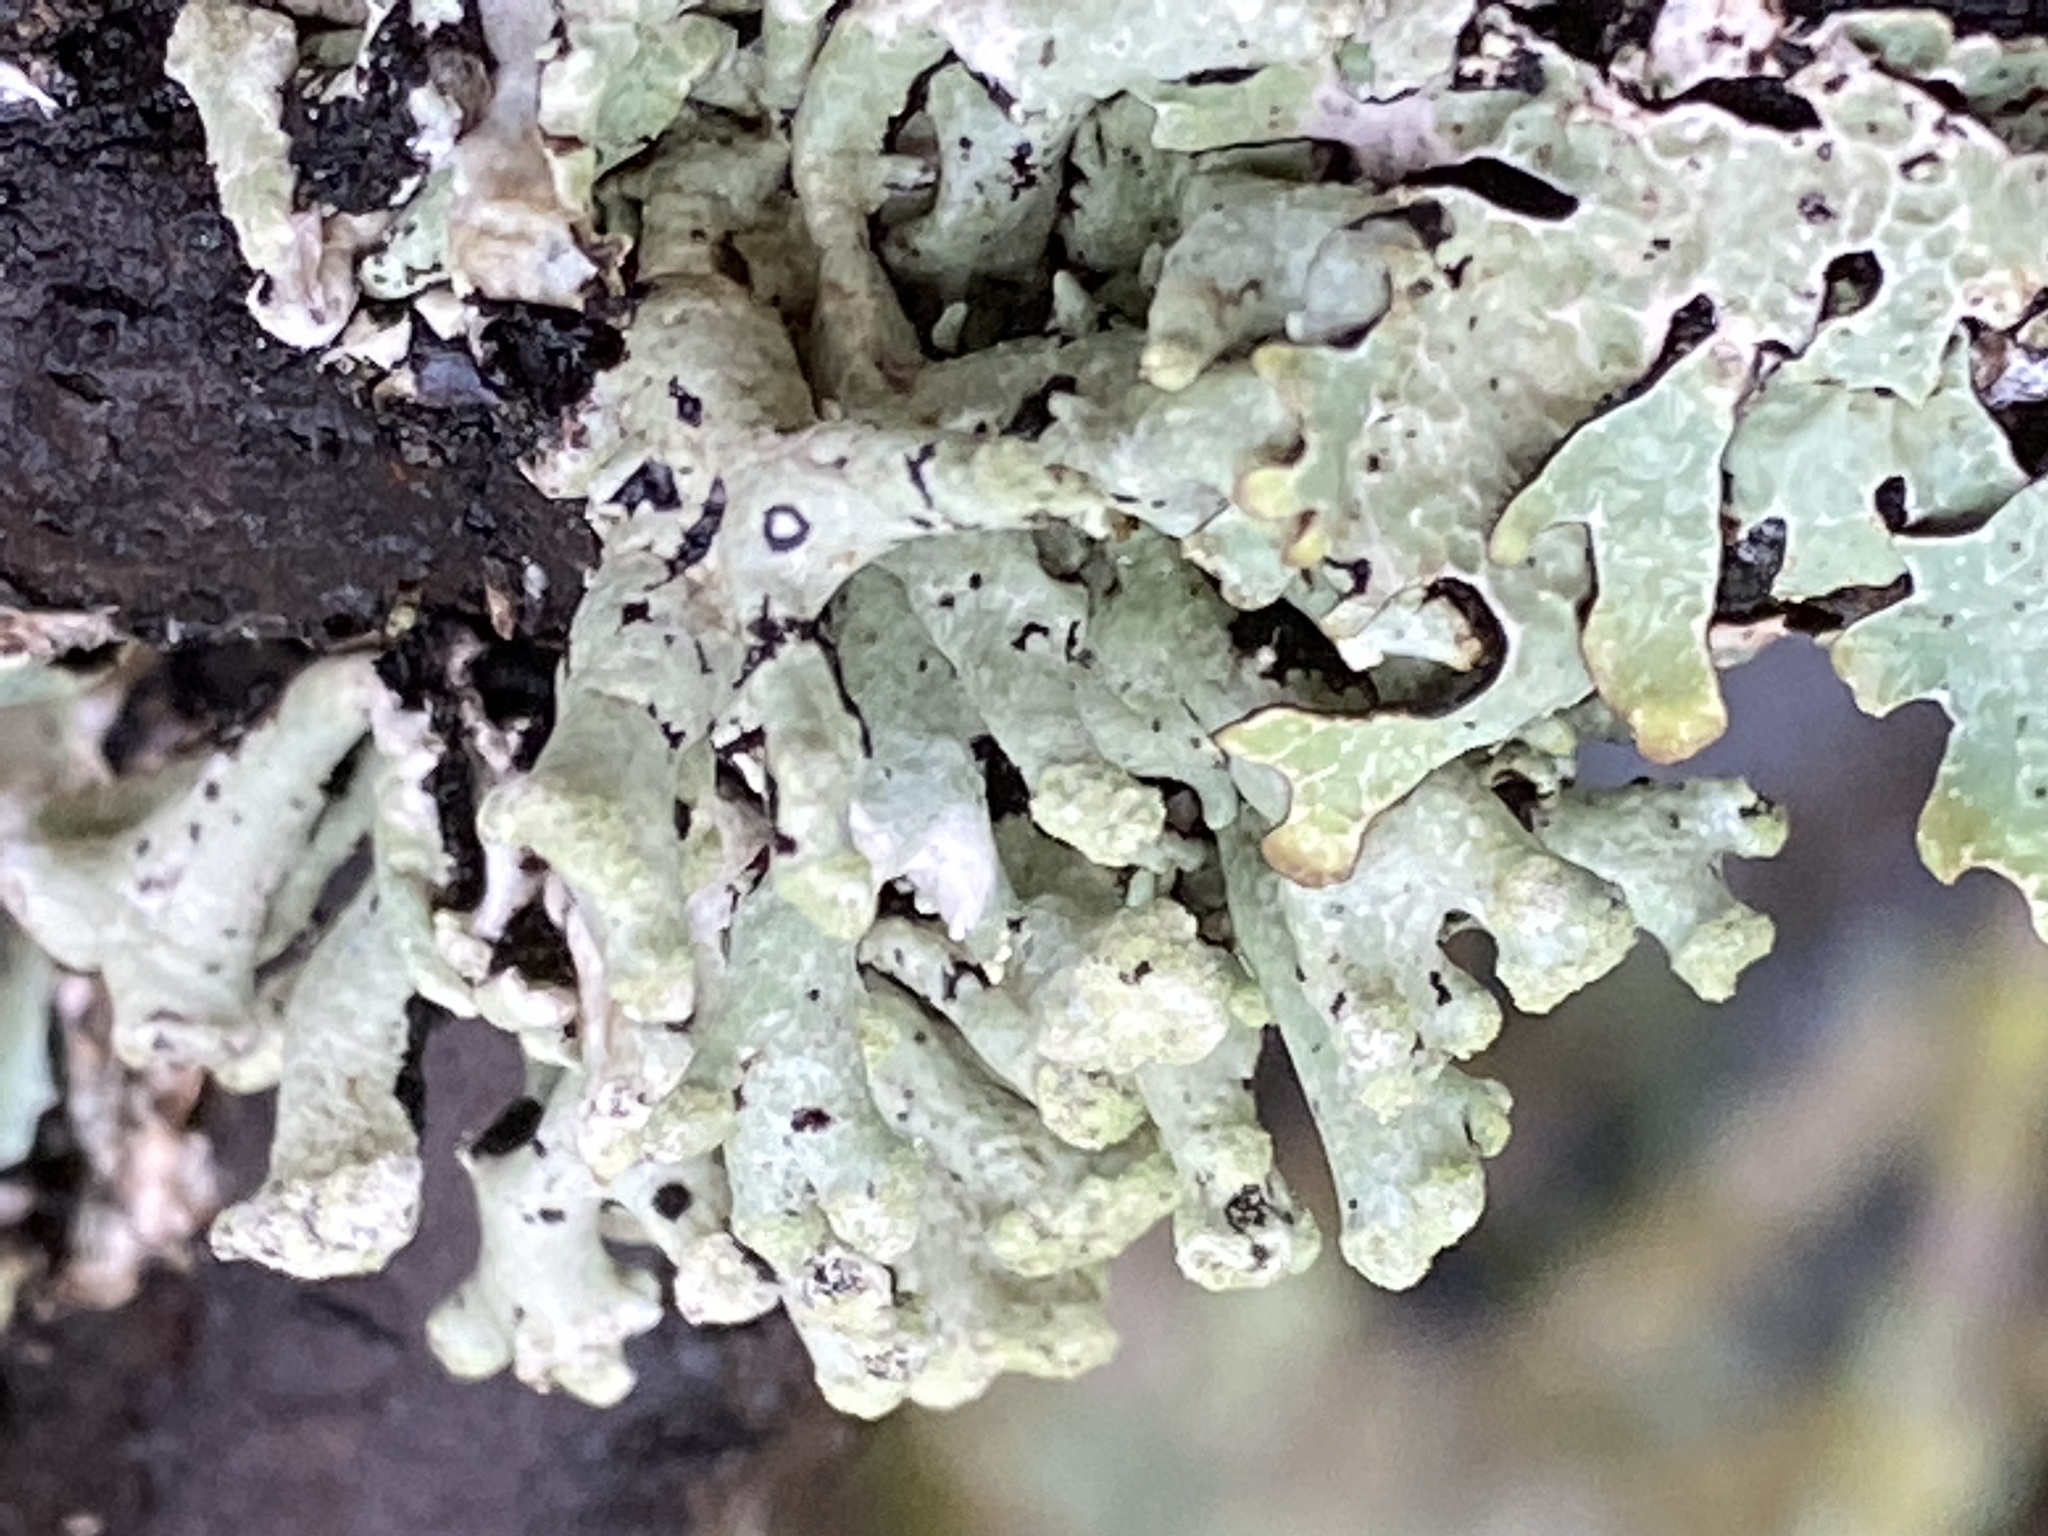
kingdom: Fungi
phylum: Ascomycota
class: Lecanoromycetes
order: Lecanorales
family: Parmeliaceae
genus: Hypogymnia
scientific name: Hypogymnia tubulosa
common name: Powder-headed tube lichen
